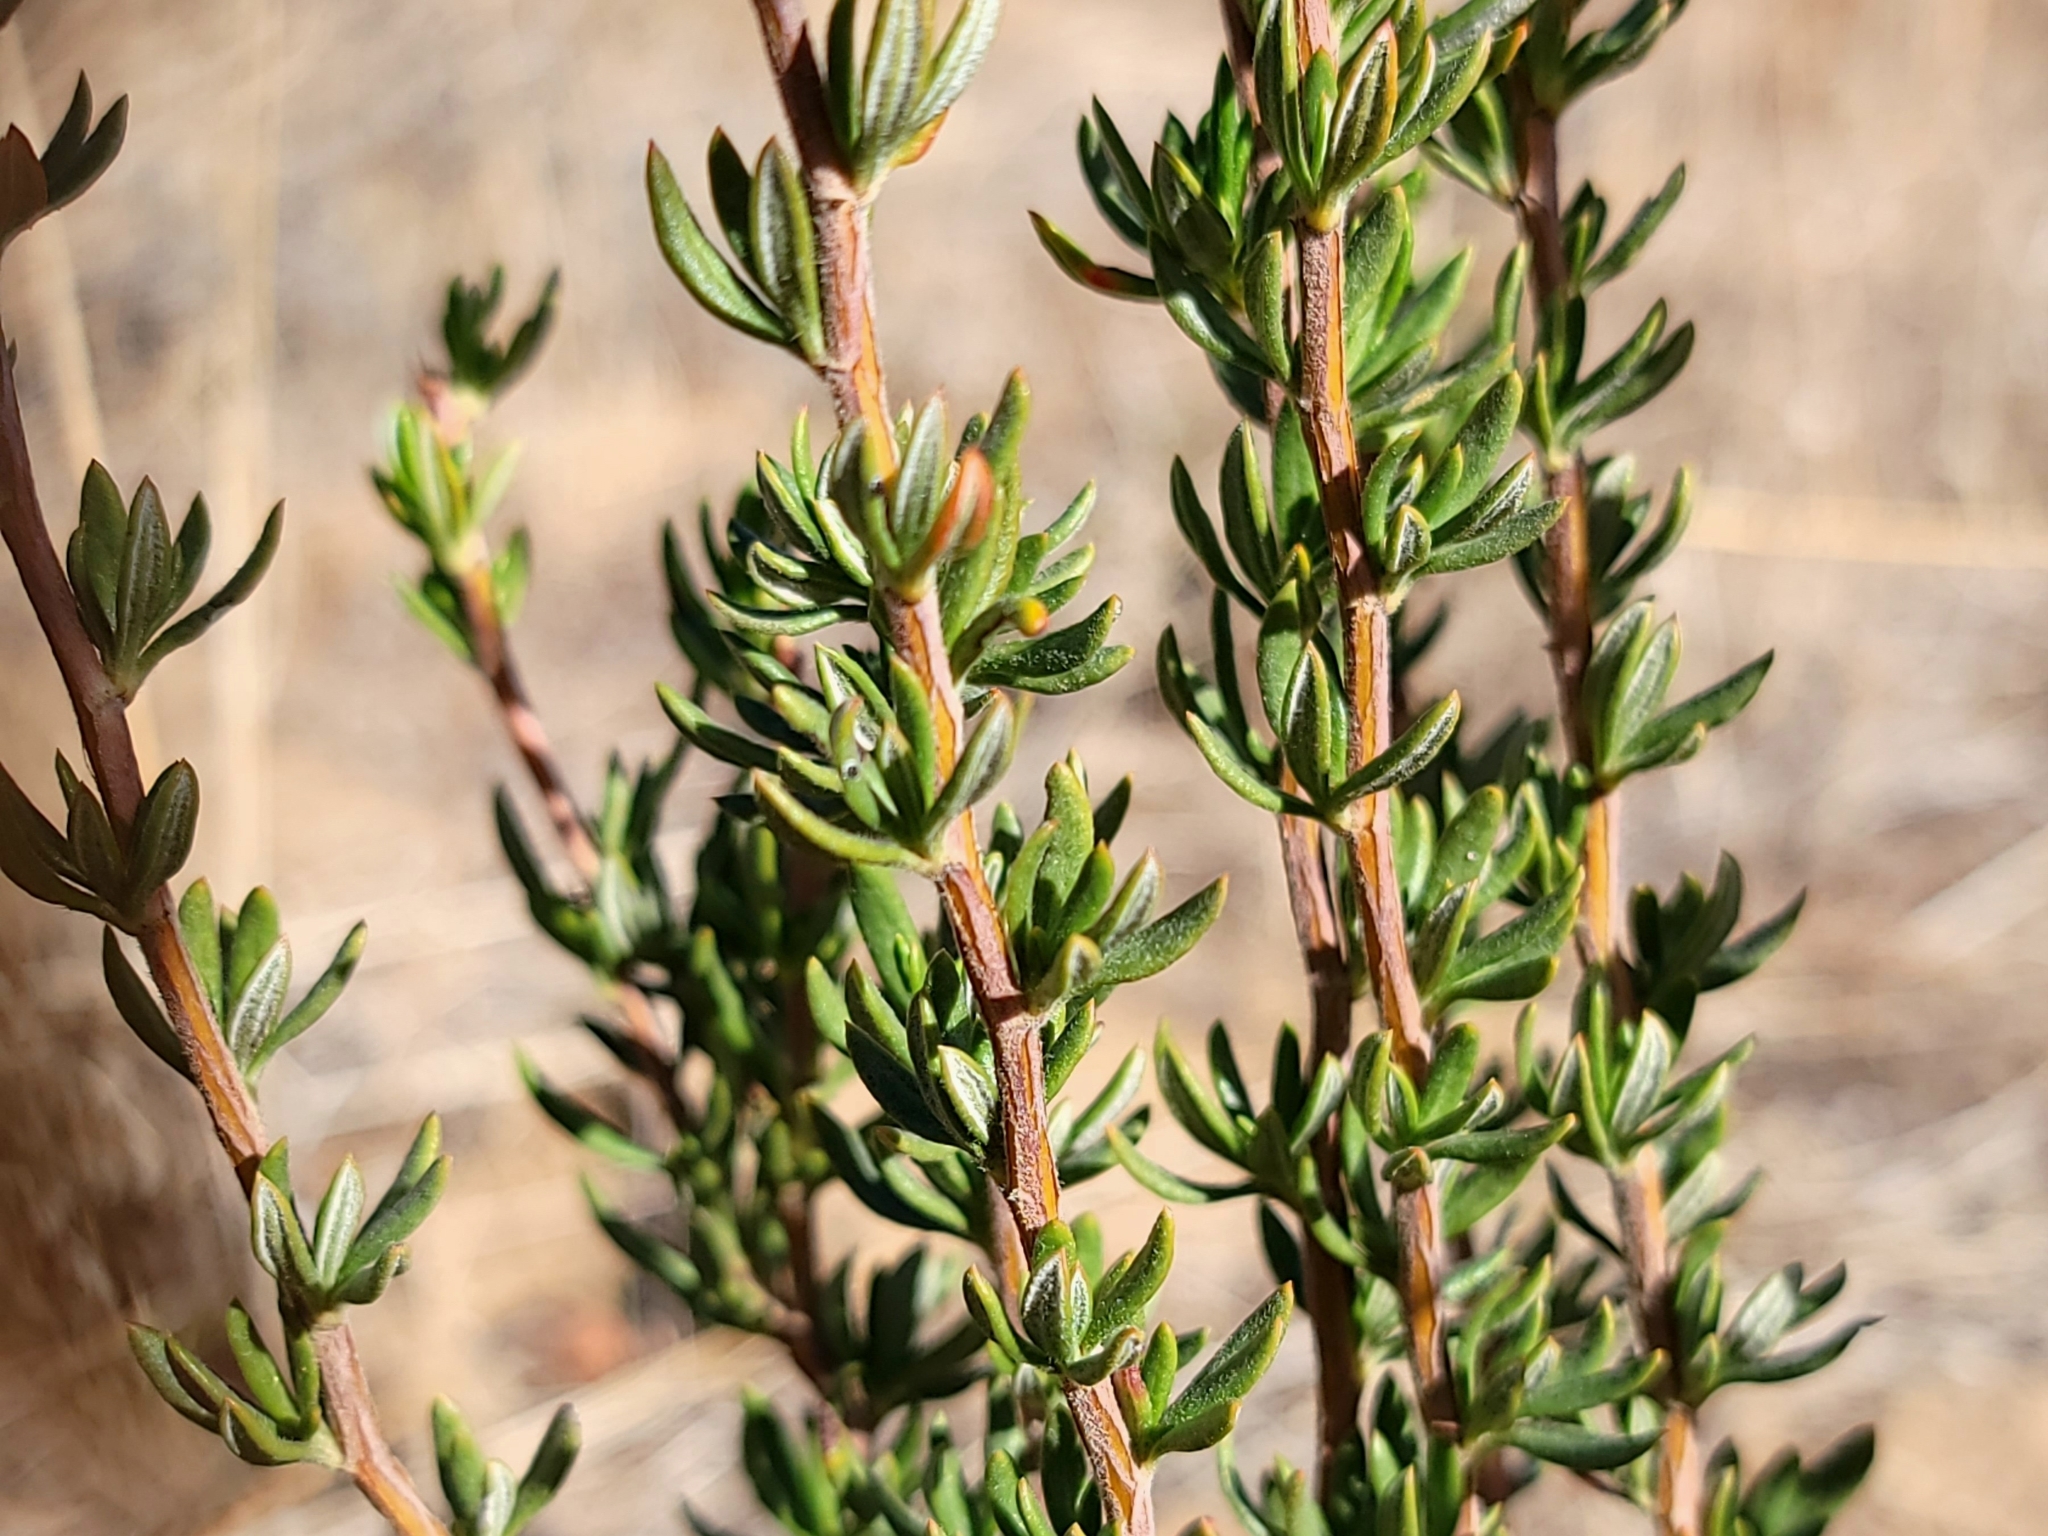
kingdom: Plantae
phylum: Tracheophyta
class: Magnoliopsida
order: Caryophyllales
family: Polygonaceae
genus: Eriogonum
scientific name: Eriogonum fasciculatum
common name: California wild buckwheat
